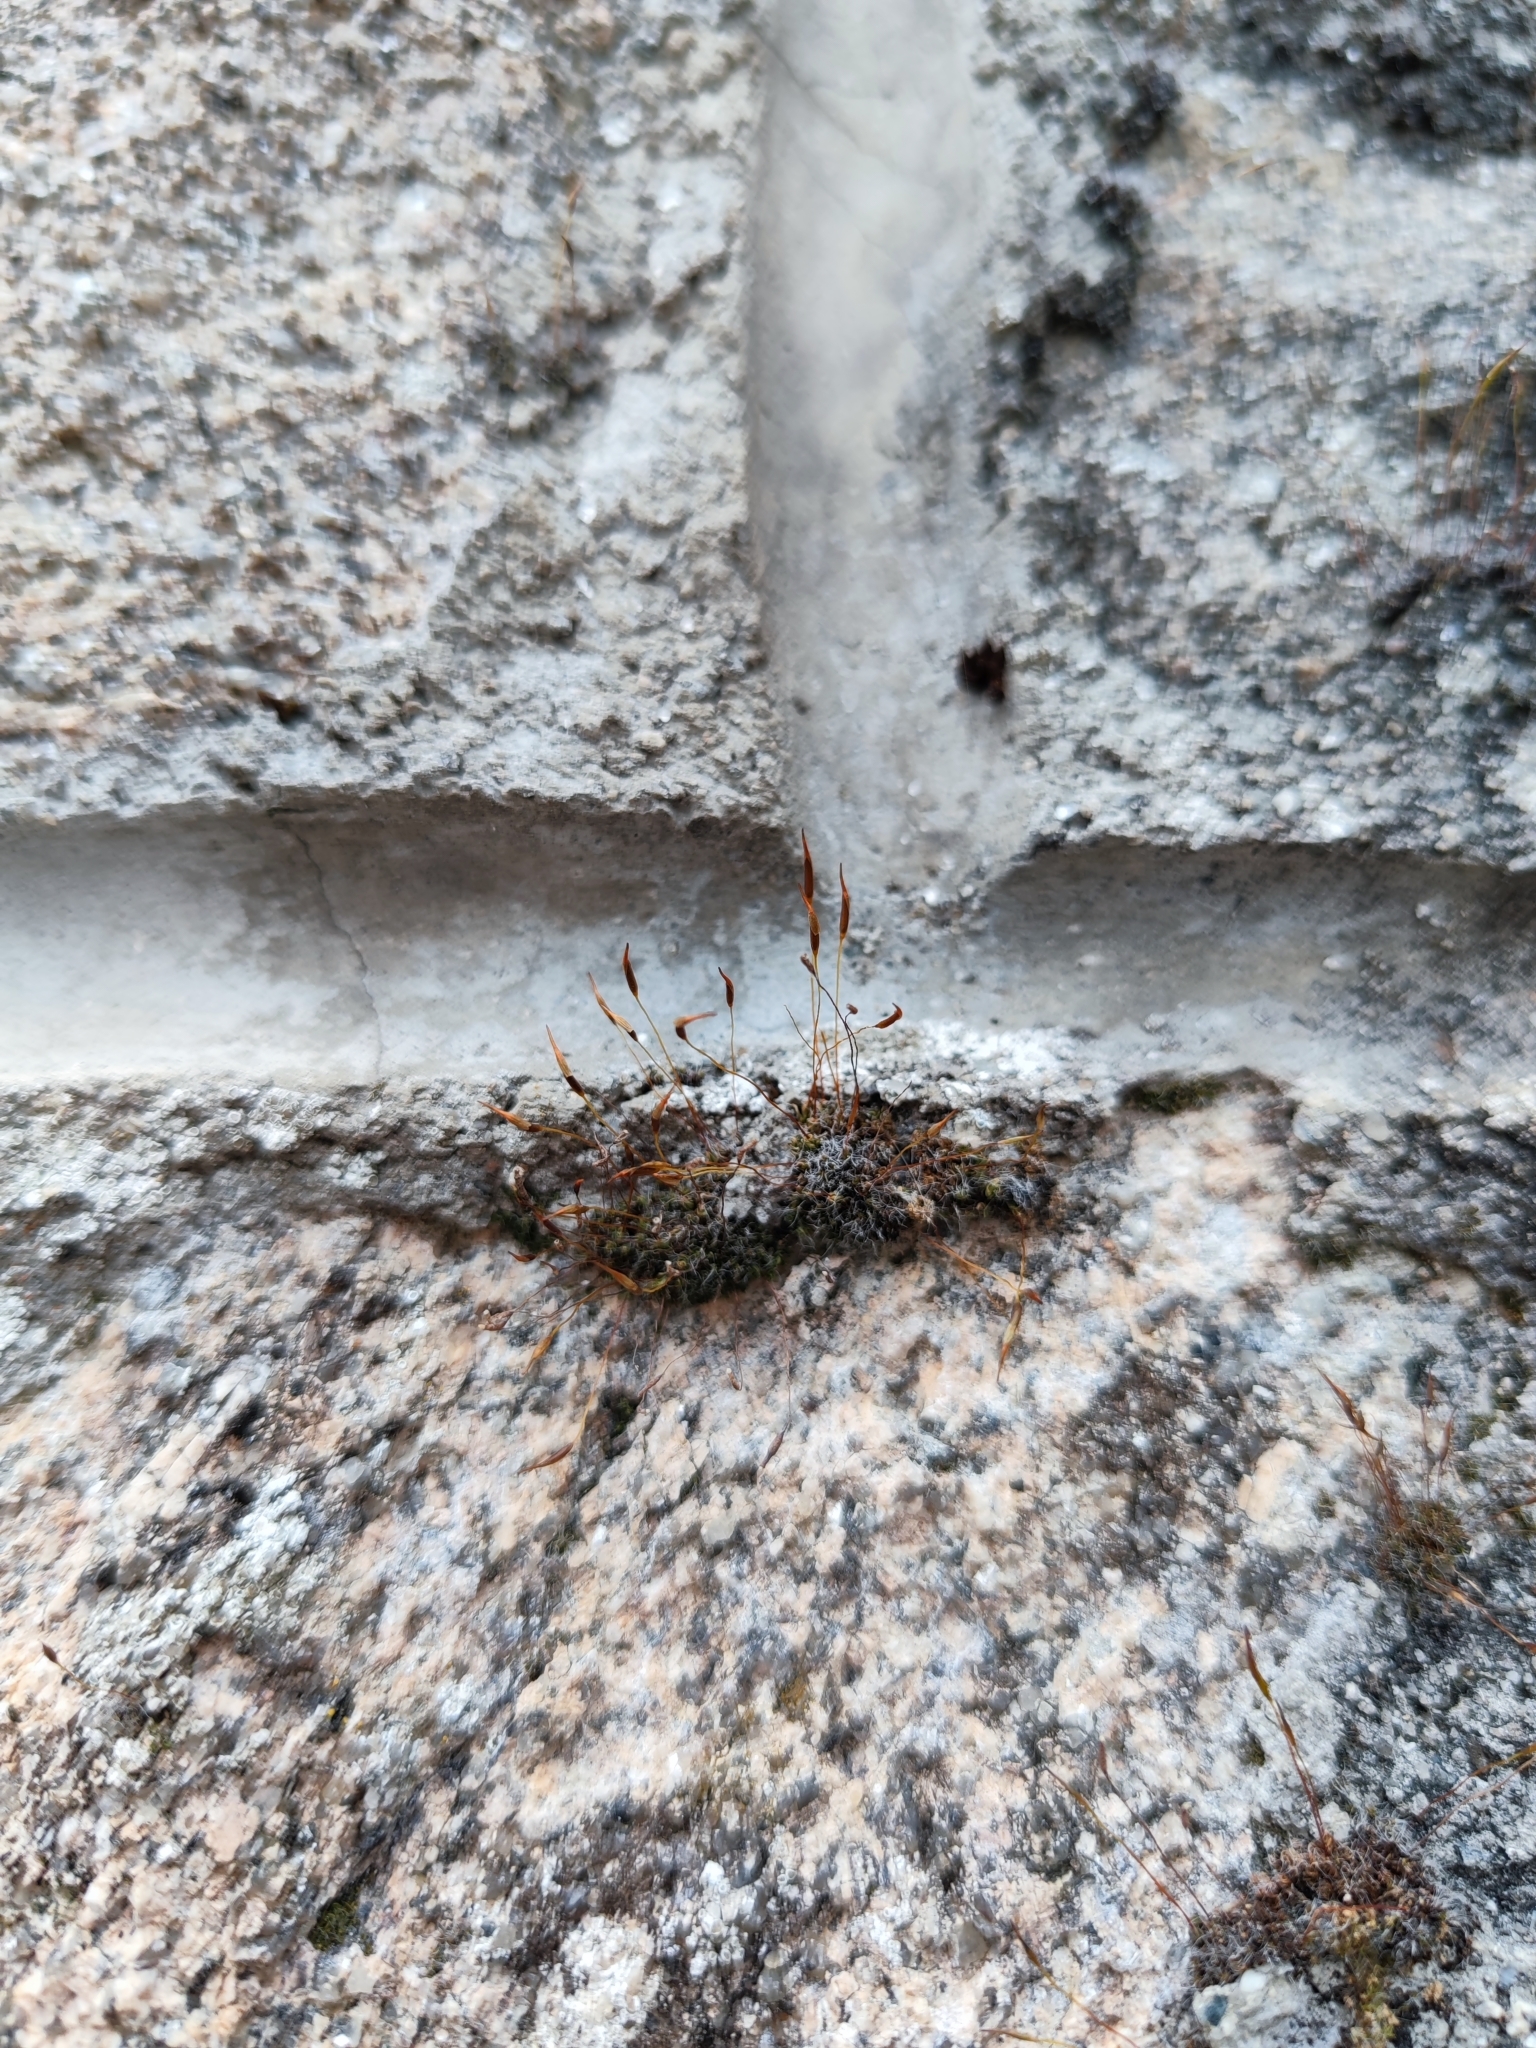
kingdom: Plantae
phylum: Bryophyta
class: Bryopsida
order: Pottiales
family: Pottiaceae
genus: Tortula
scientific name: Tortula muralis
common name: Wall screw-moss
